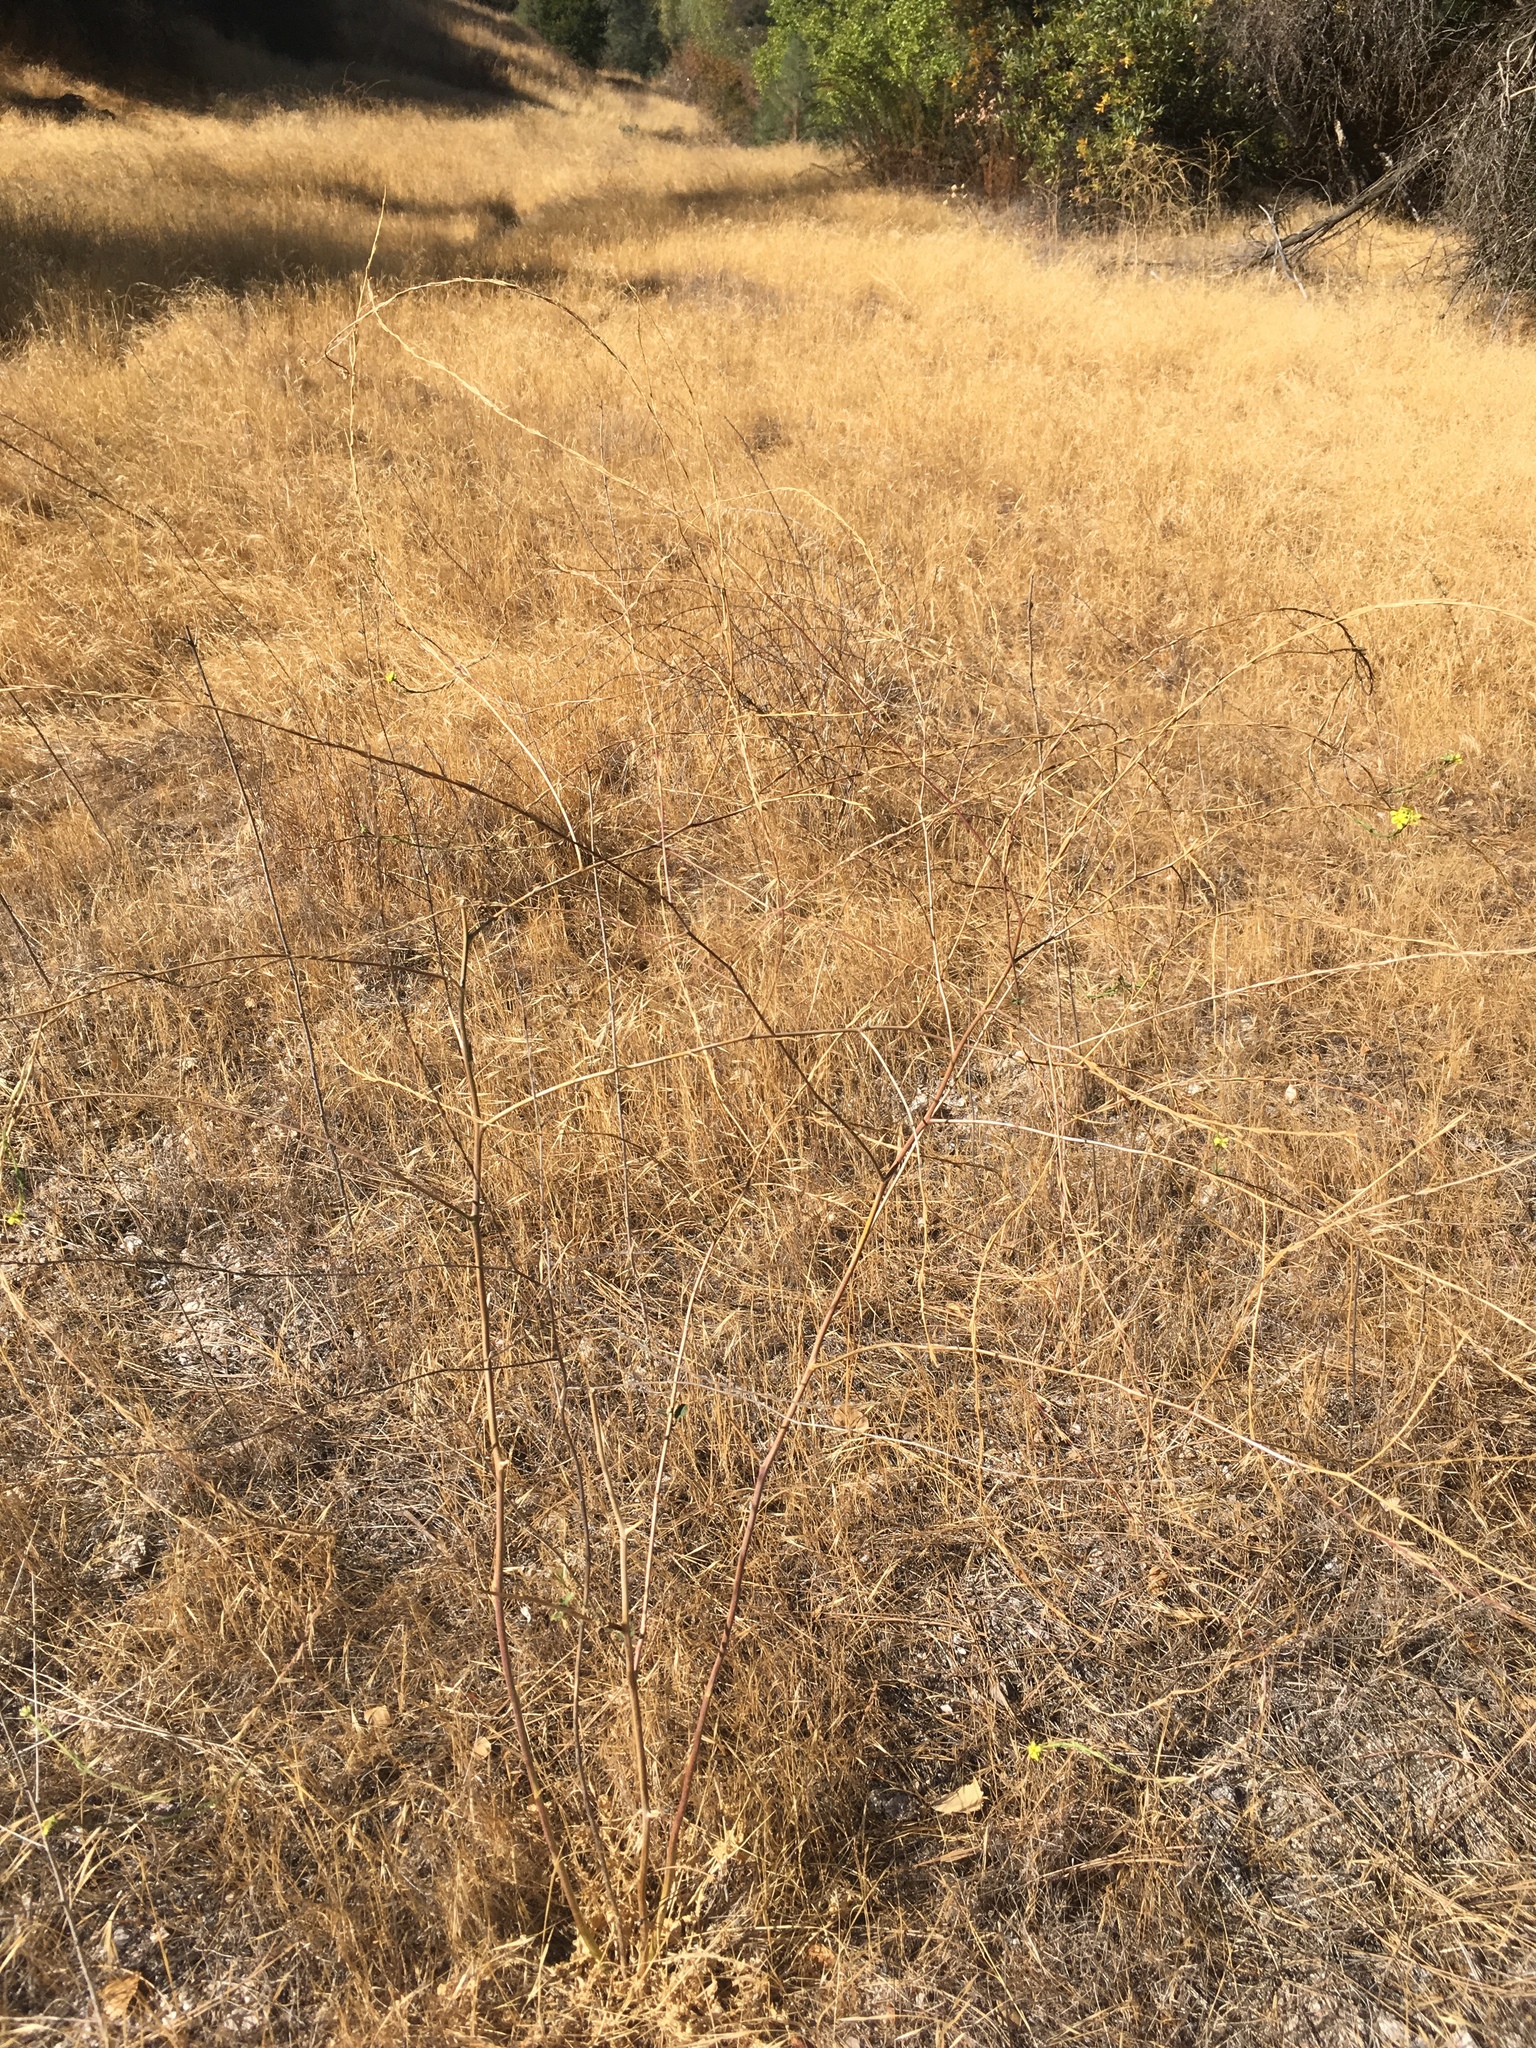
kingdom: Plantae
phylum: Tracheophyta
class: Magnoliopsida
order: Brassicales
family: Brassicaceae
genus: Hirschfeldia
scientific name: Hirschfeldia incana
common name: Hoary mustard
